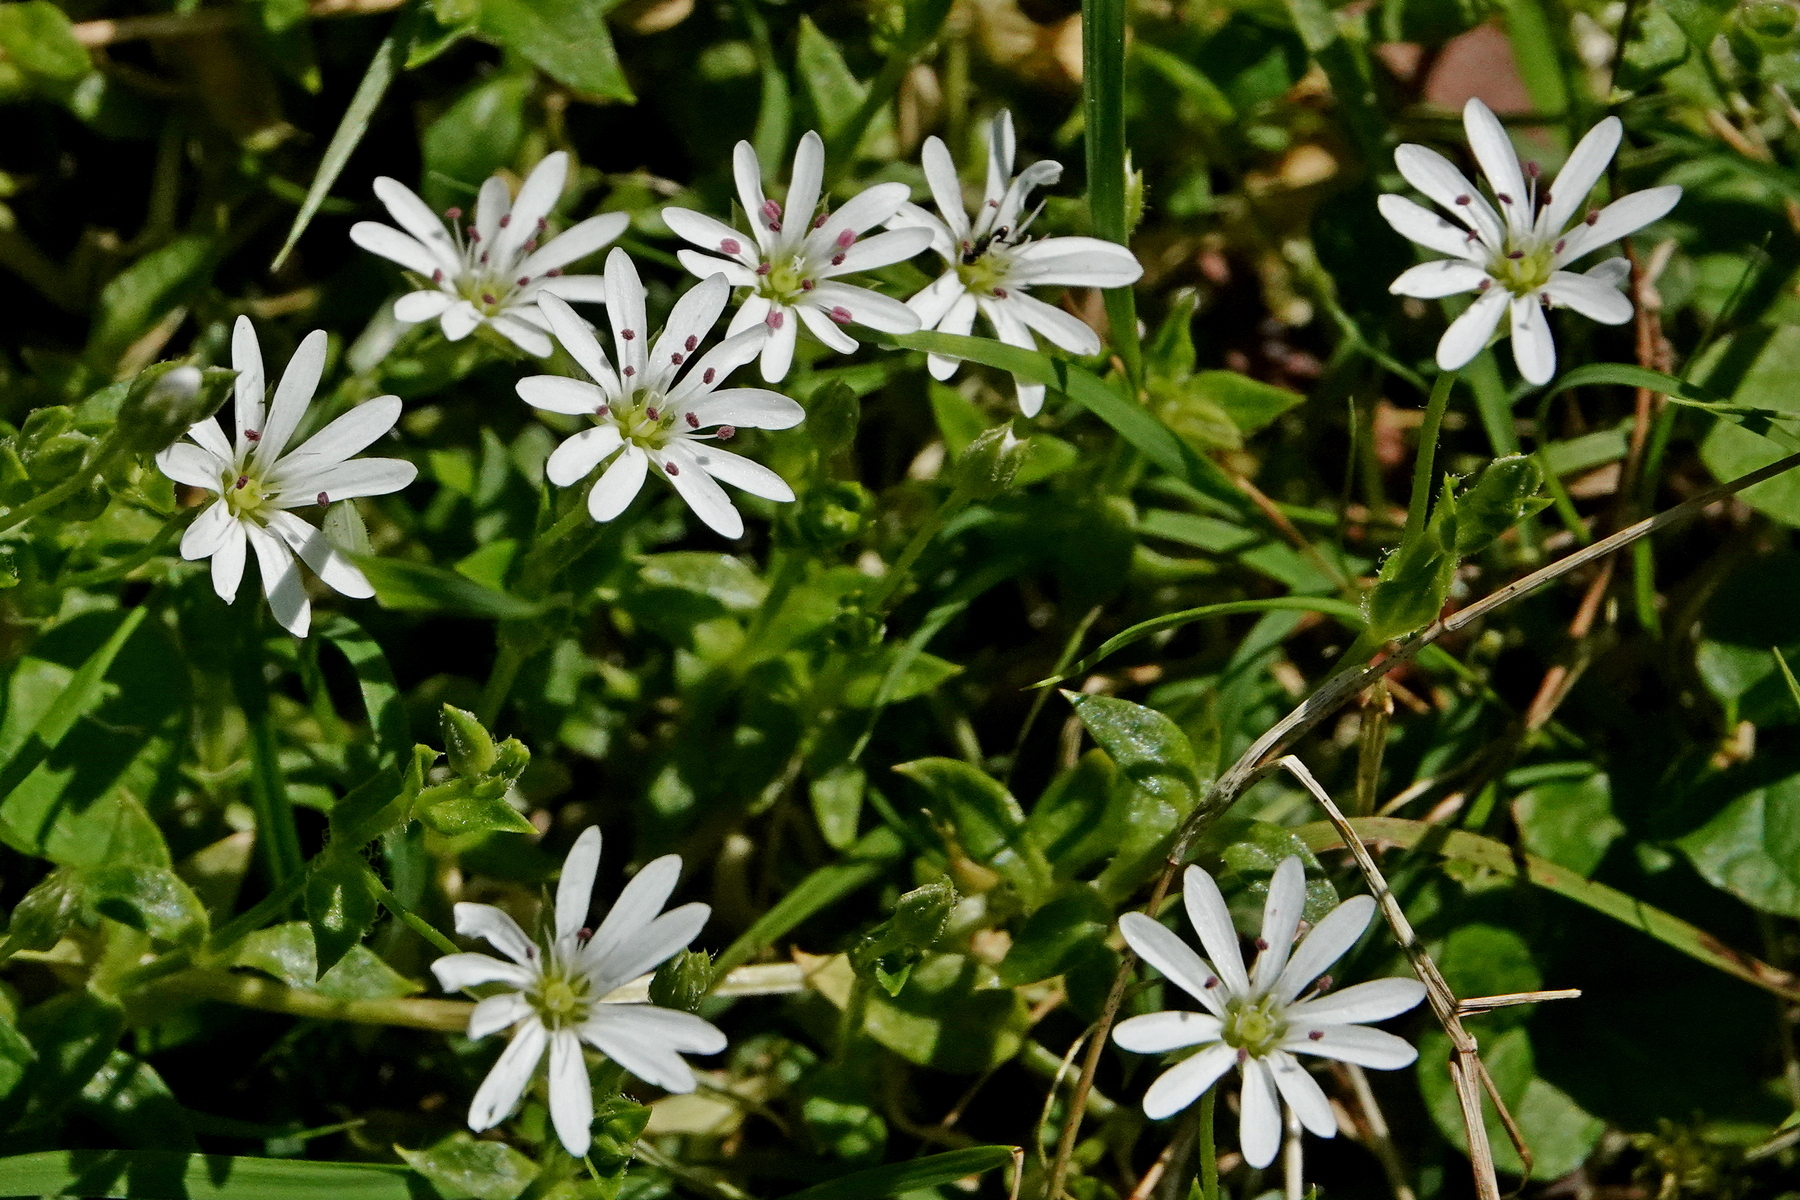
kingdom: Plantae
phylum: Tracheophyta
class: Magnoliopsida
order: Caryophyllales
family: Caryophyllaceae
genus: Stellaria
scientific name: Stellaria flaccida
